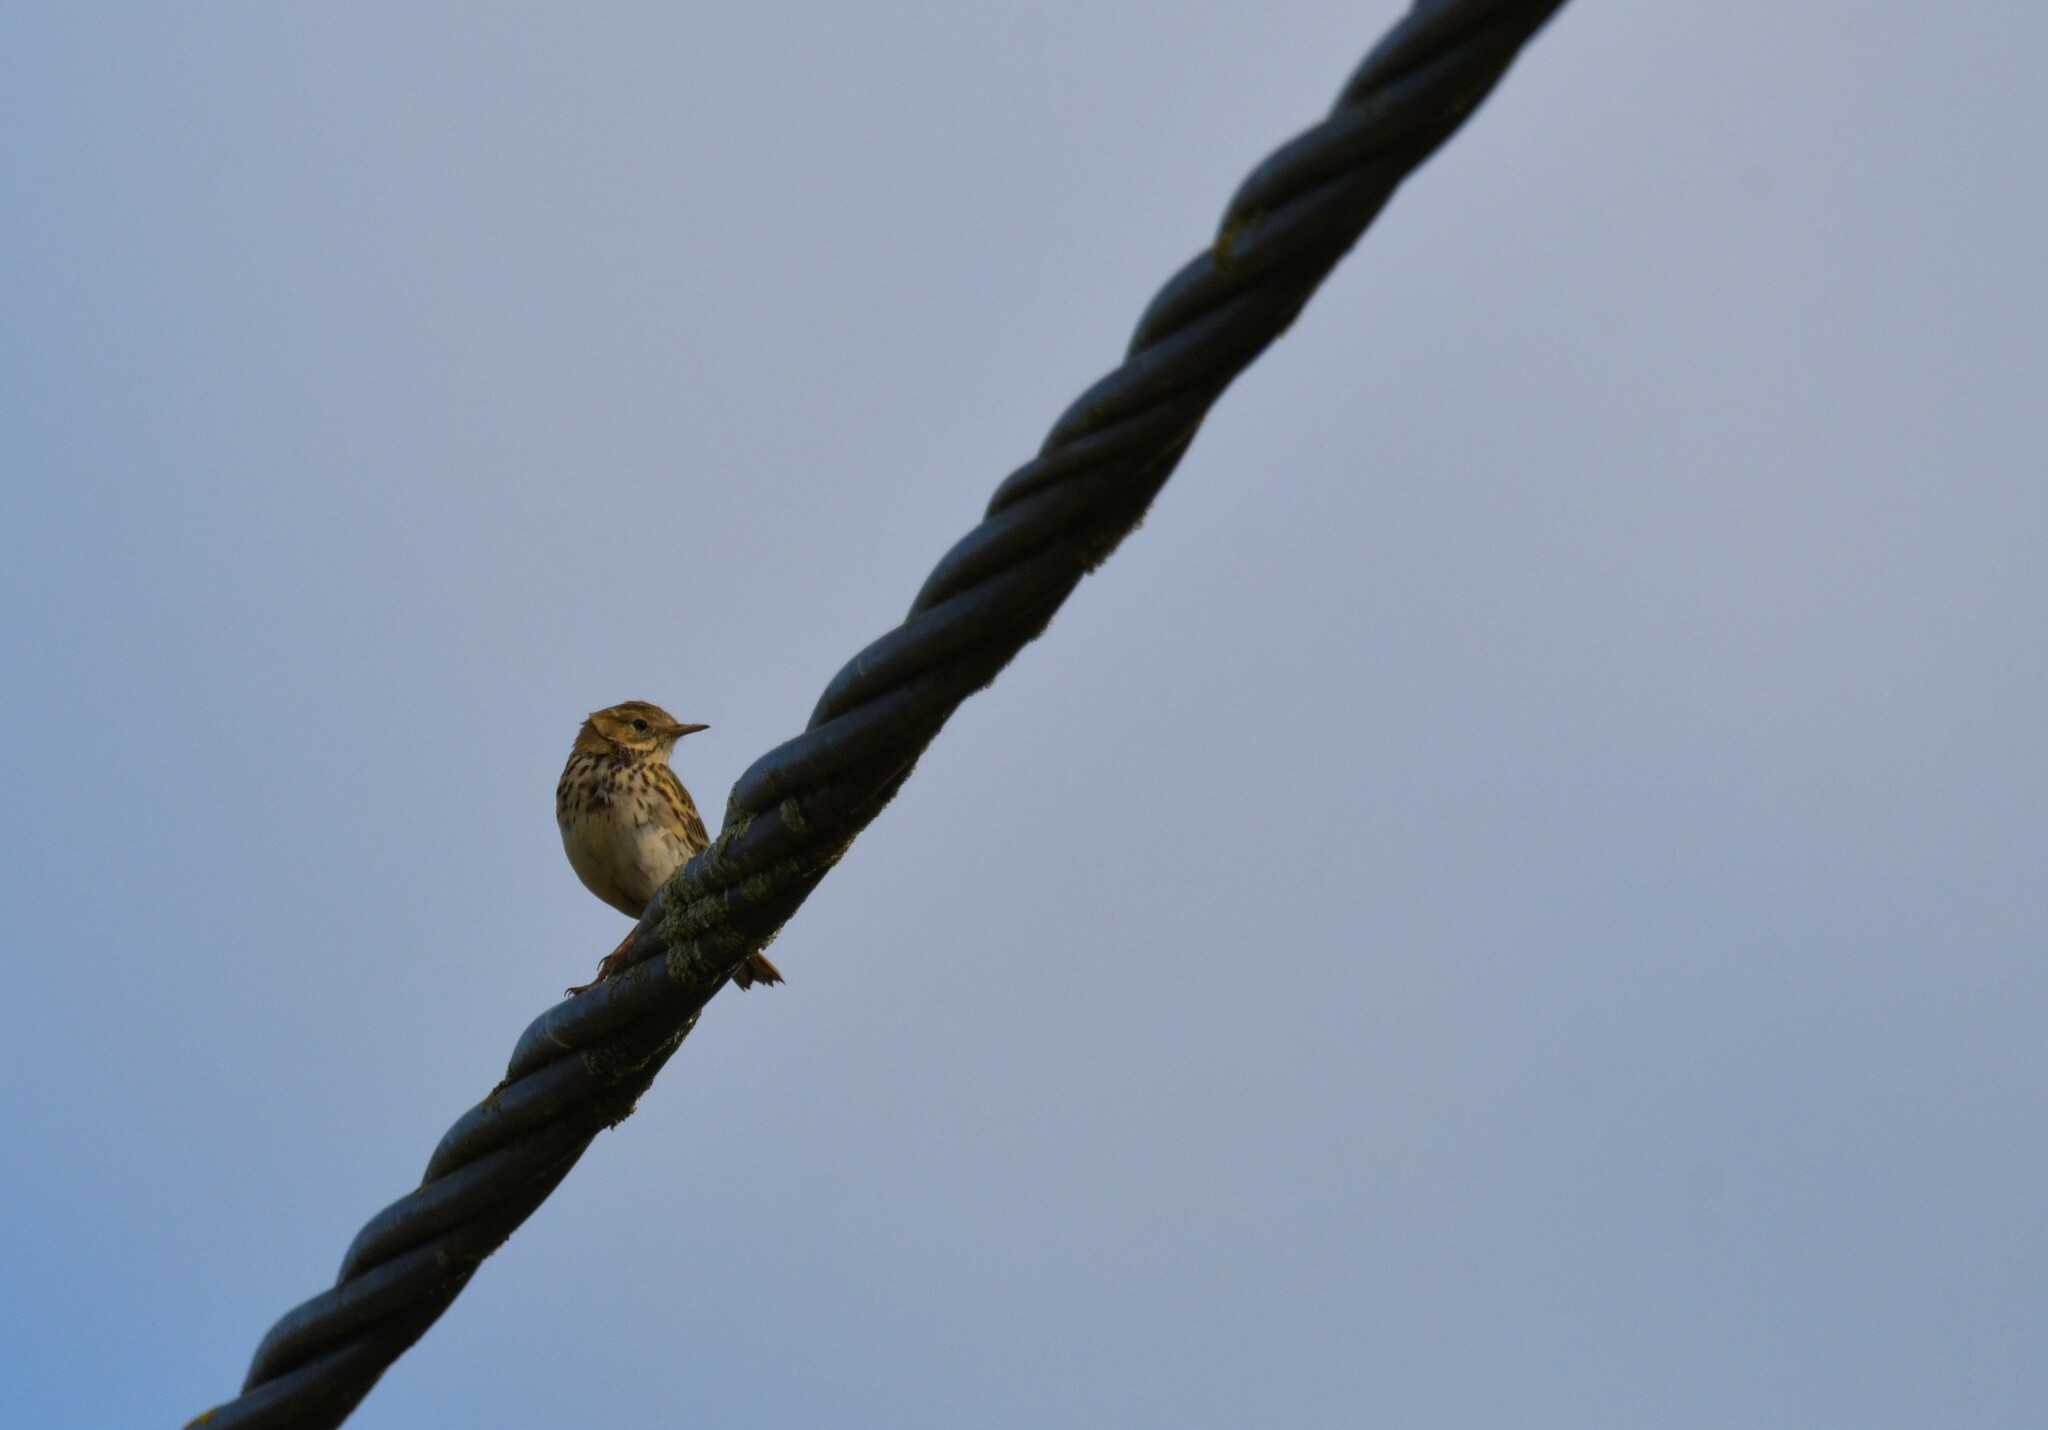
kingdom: Animalia
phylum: Chordata
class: Aves
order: Passeriformes
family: Motacillidae
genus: Anthus
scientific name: Anthus pratensis
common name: Meadow pipit
